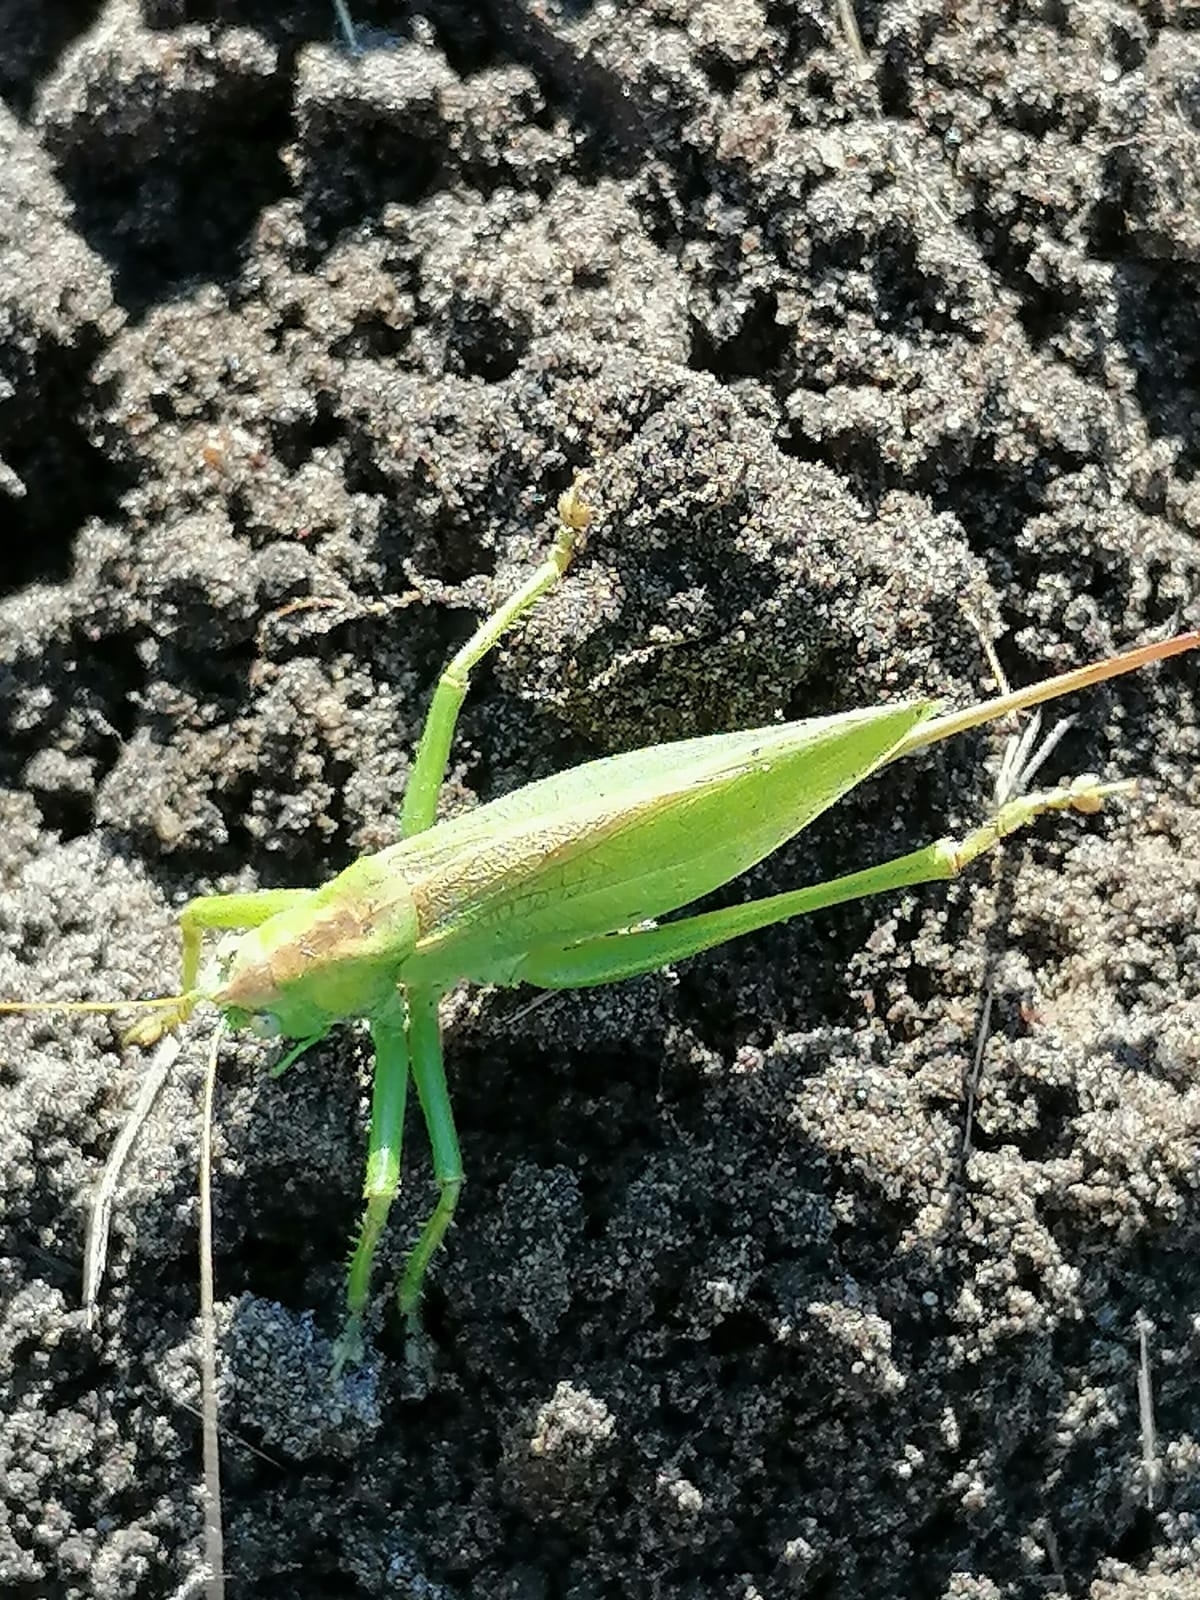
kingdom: Animalia
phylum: Arthropoda
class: Insecta
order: Orthoptera
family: Tettigoniidae
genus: Tettigonia
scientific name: Tettigonia cantans
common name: Upland green bush-cricket
